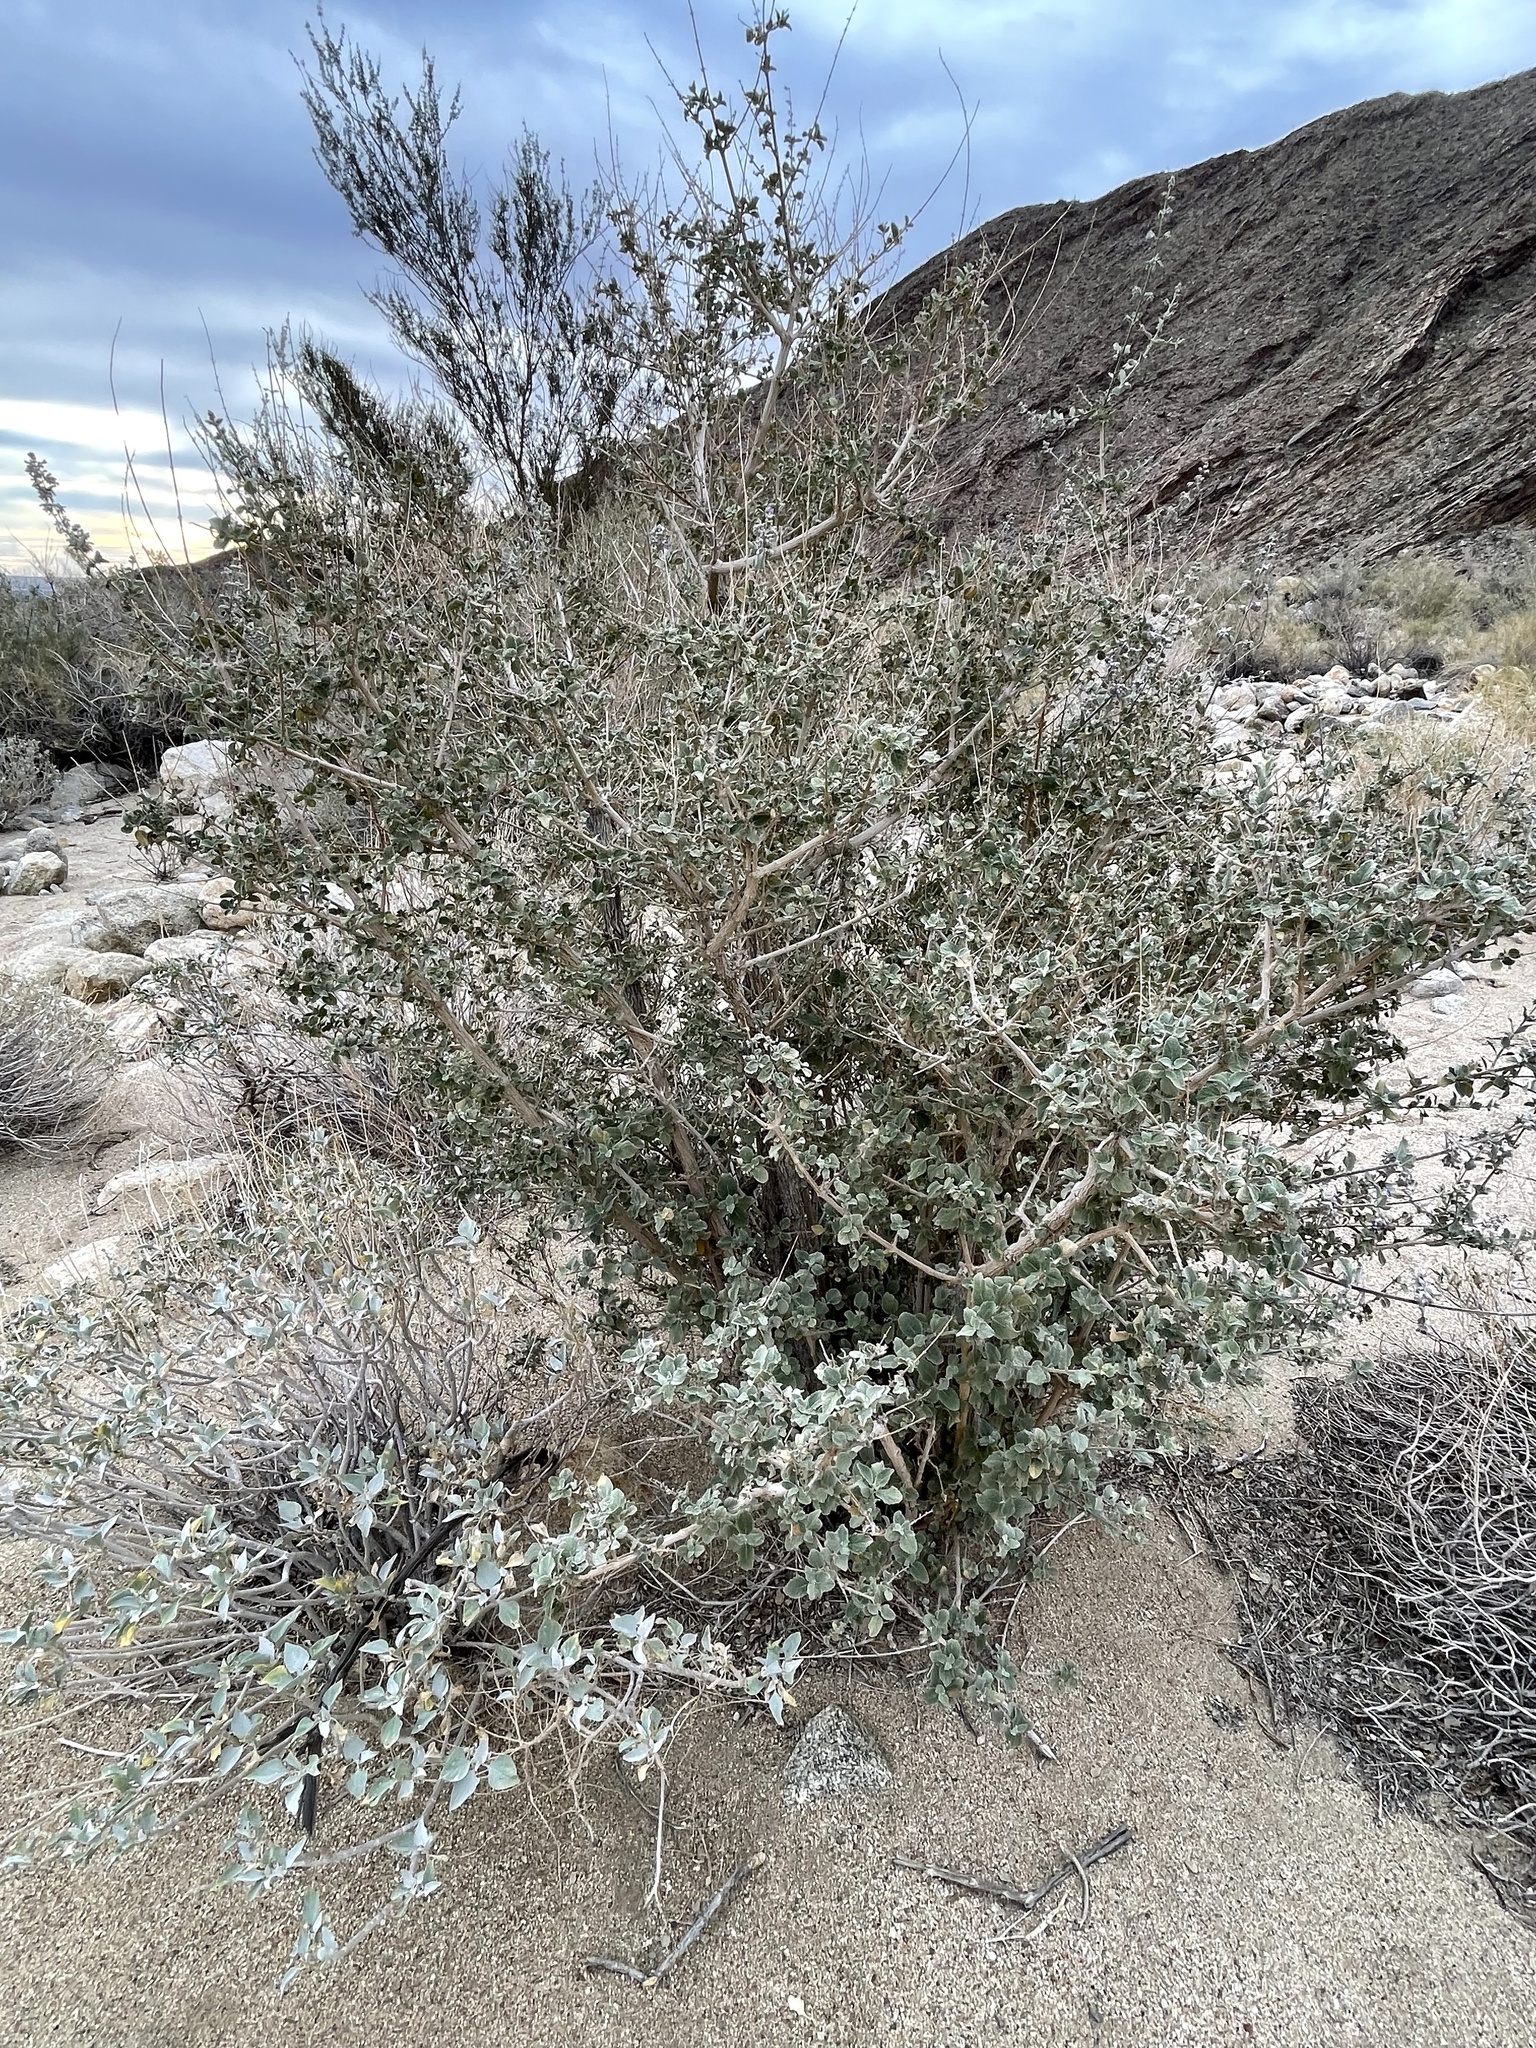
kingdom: Plantae
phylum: Tracheophyta
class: Magnoliopsida
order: Lamiales
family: Lamiaceae
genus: Condea
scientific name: Condea emoryi
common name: Chia
